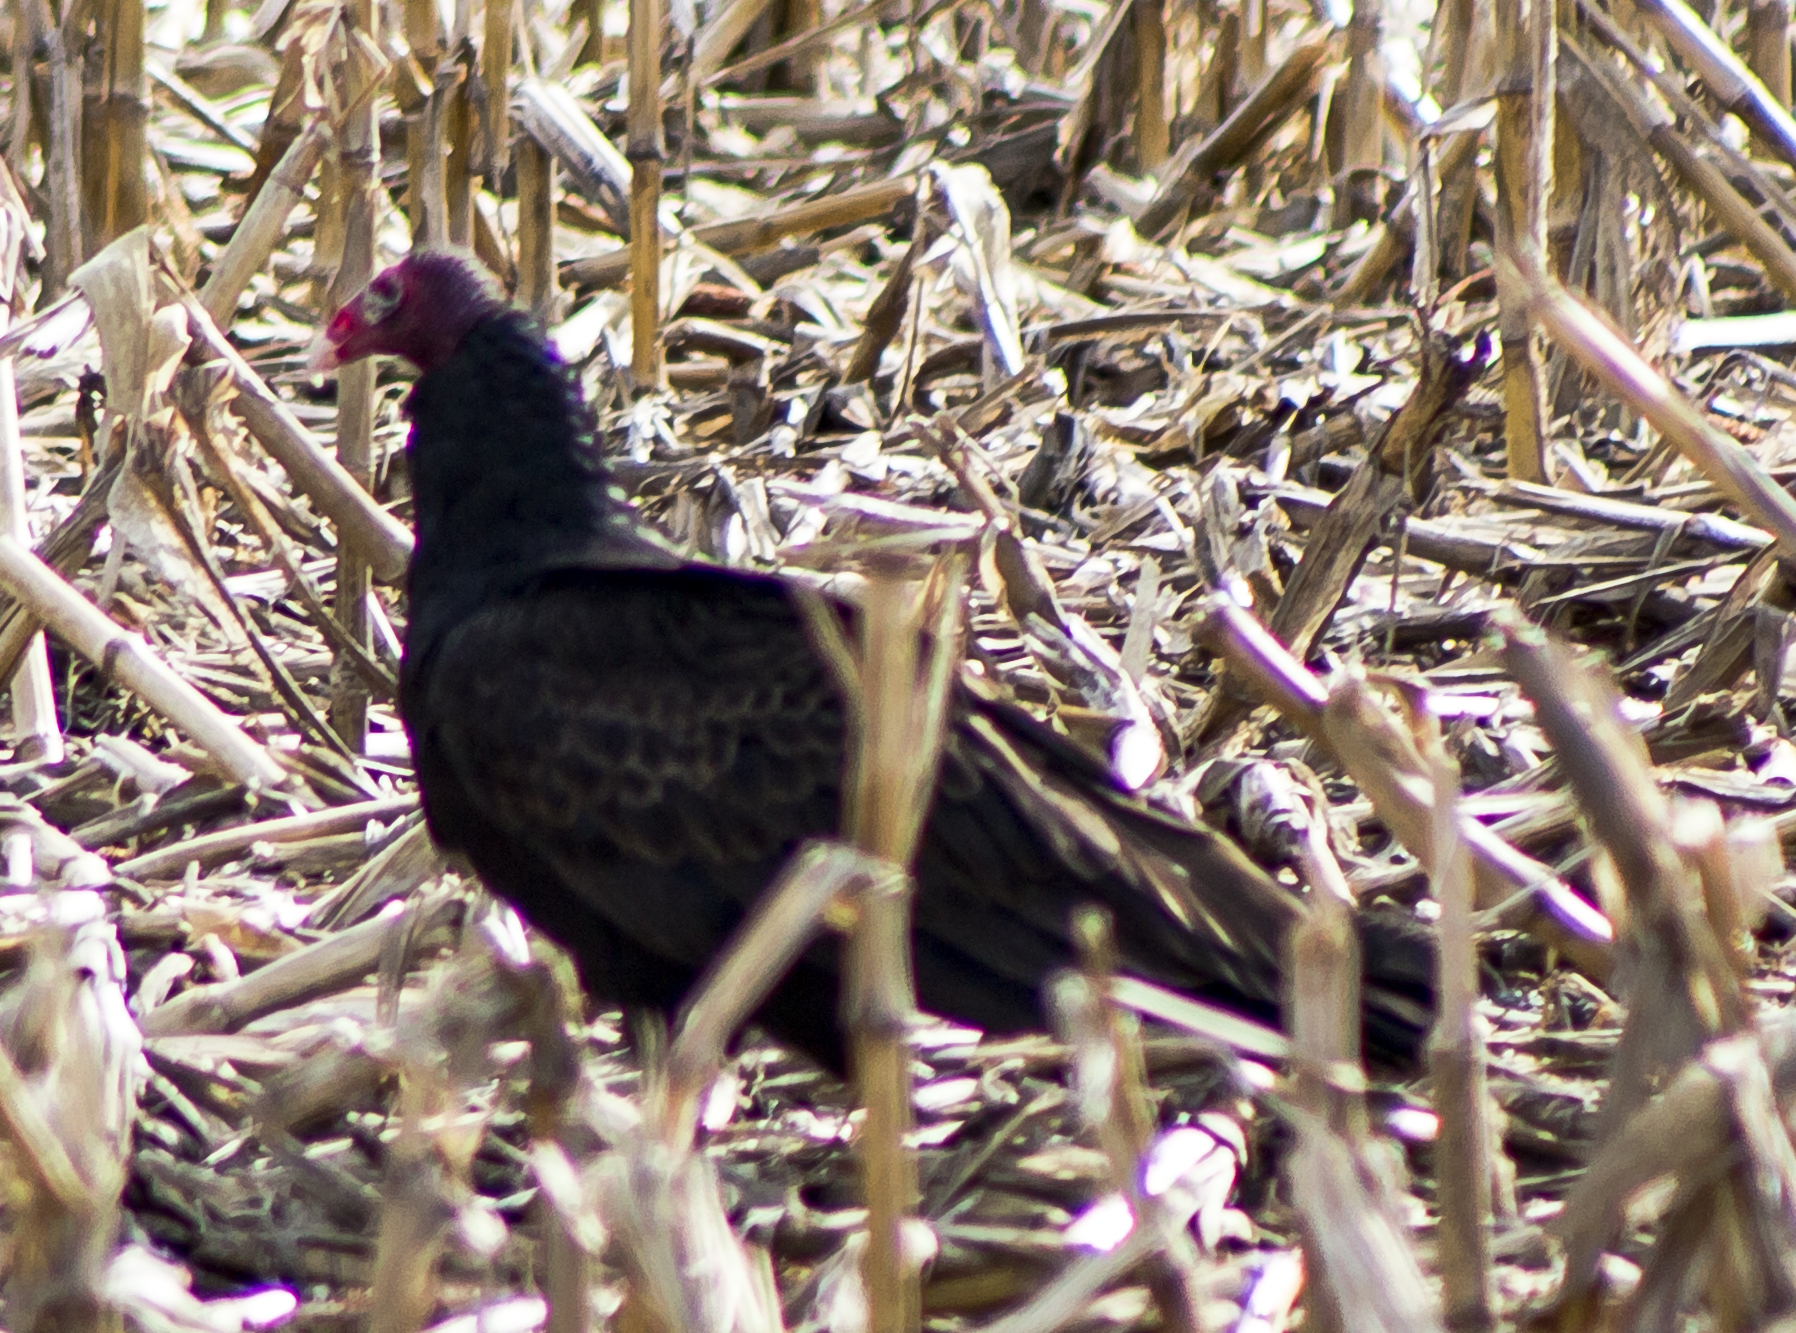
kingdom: Animalia
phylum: Chordata
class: Aves
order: Accipitriformes
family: Cathartidae
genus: Cathartes
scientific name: Cathartes aura
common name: Turkey vulture
